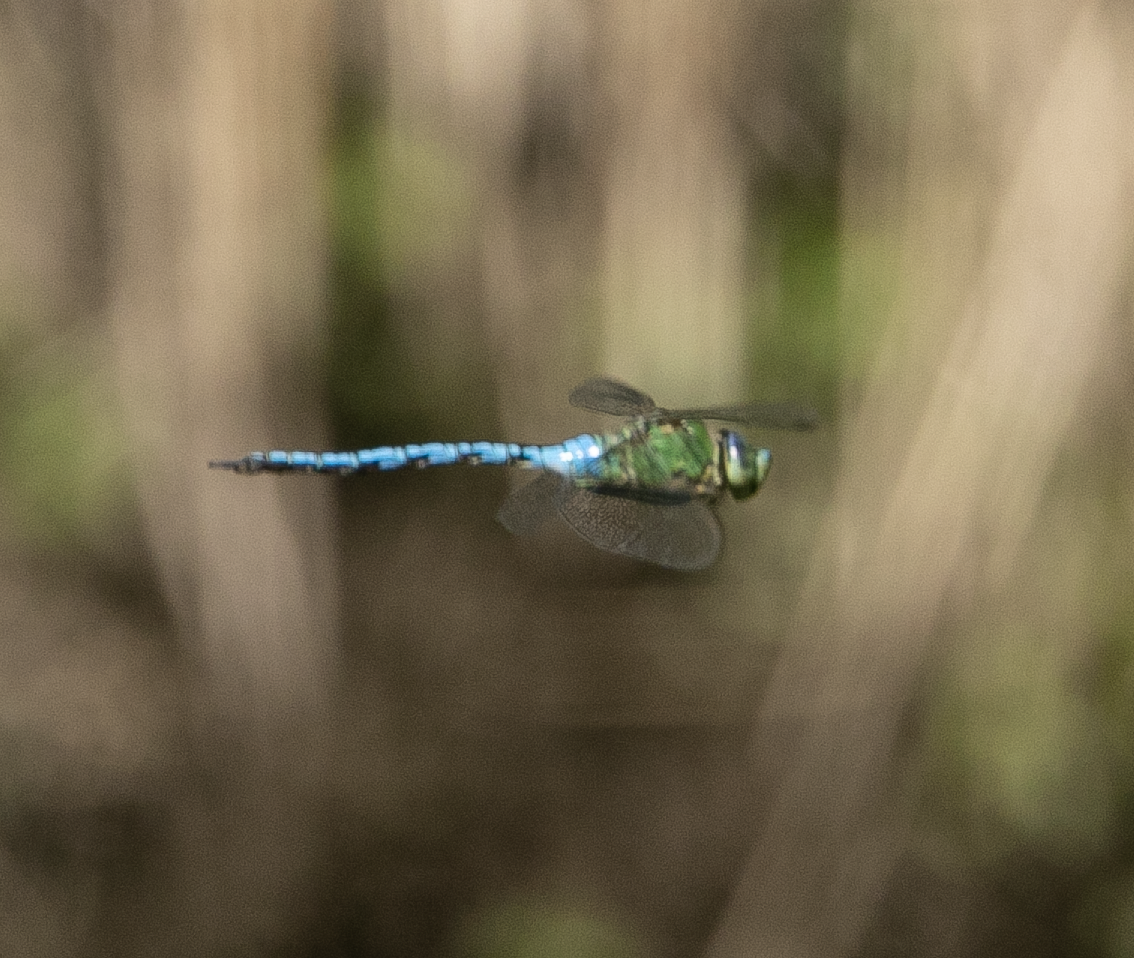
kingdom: Animalia
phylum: Arthropoda
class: Insecta
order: Odonata
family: Aeshnidae
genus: Anax
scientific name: Anax imperator
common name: Emperor dragonfly
